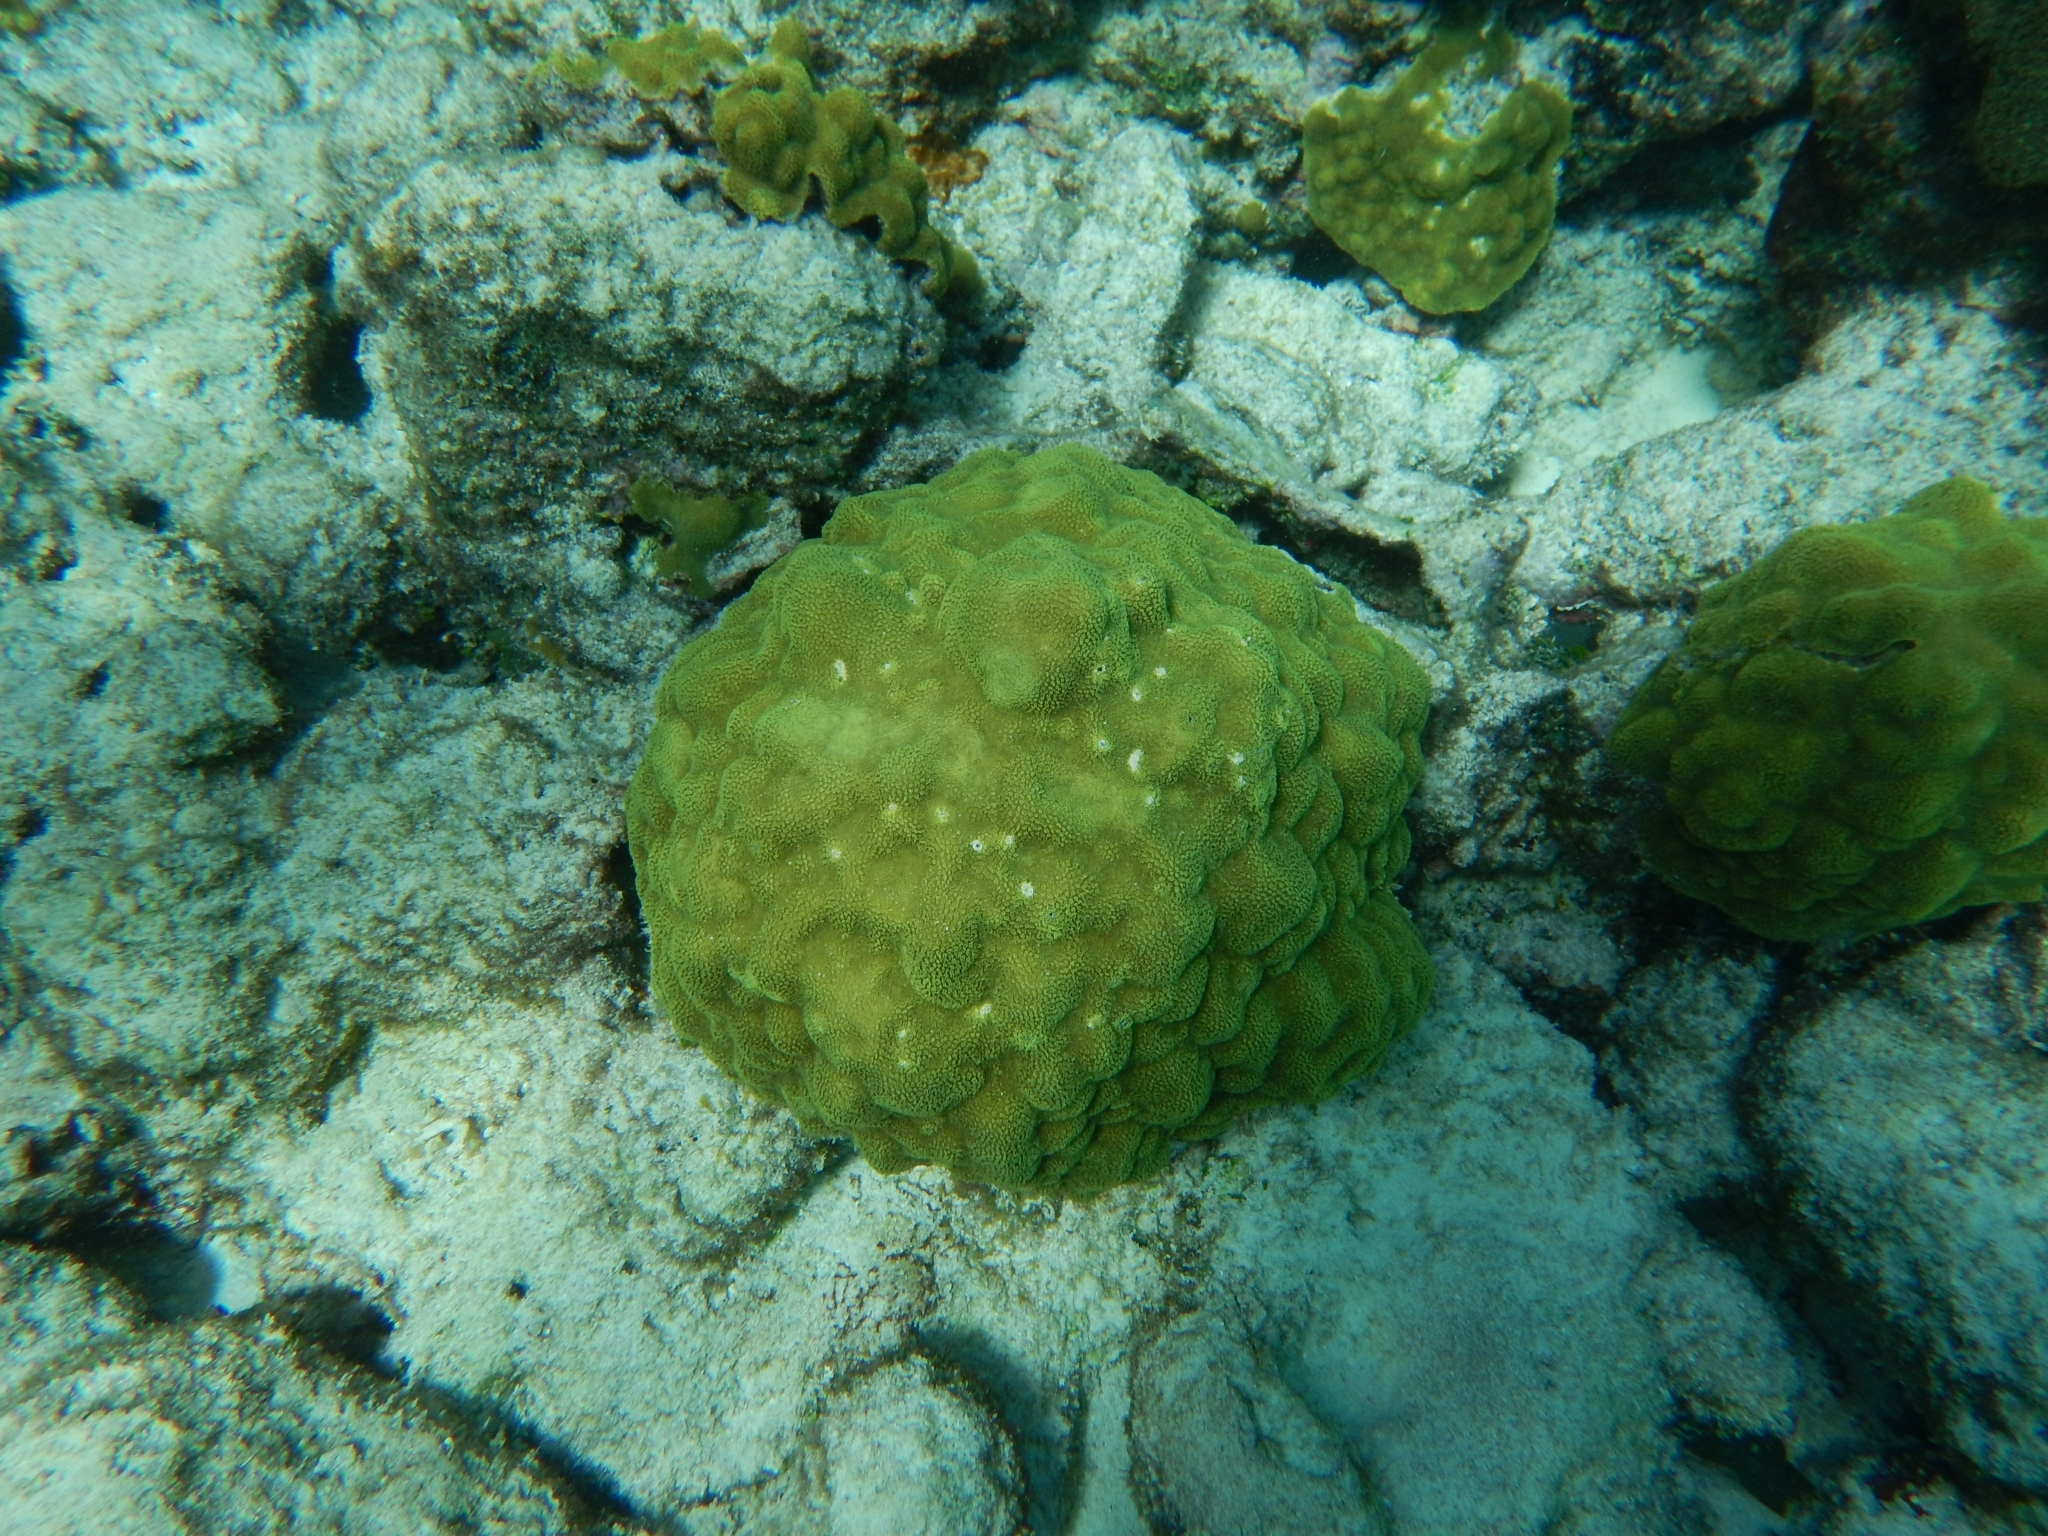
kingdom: Animalia
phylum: Cnidaria
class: Anthozoa
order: Scleractinia
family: Poritidae
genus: Porites
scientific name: Porites astreoides
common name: Mustard hill coral
